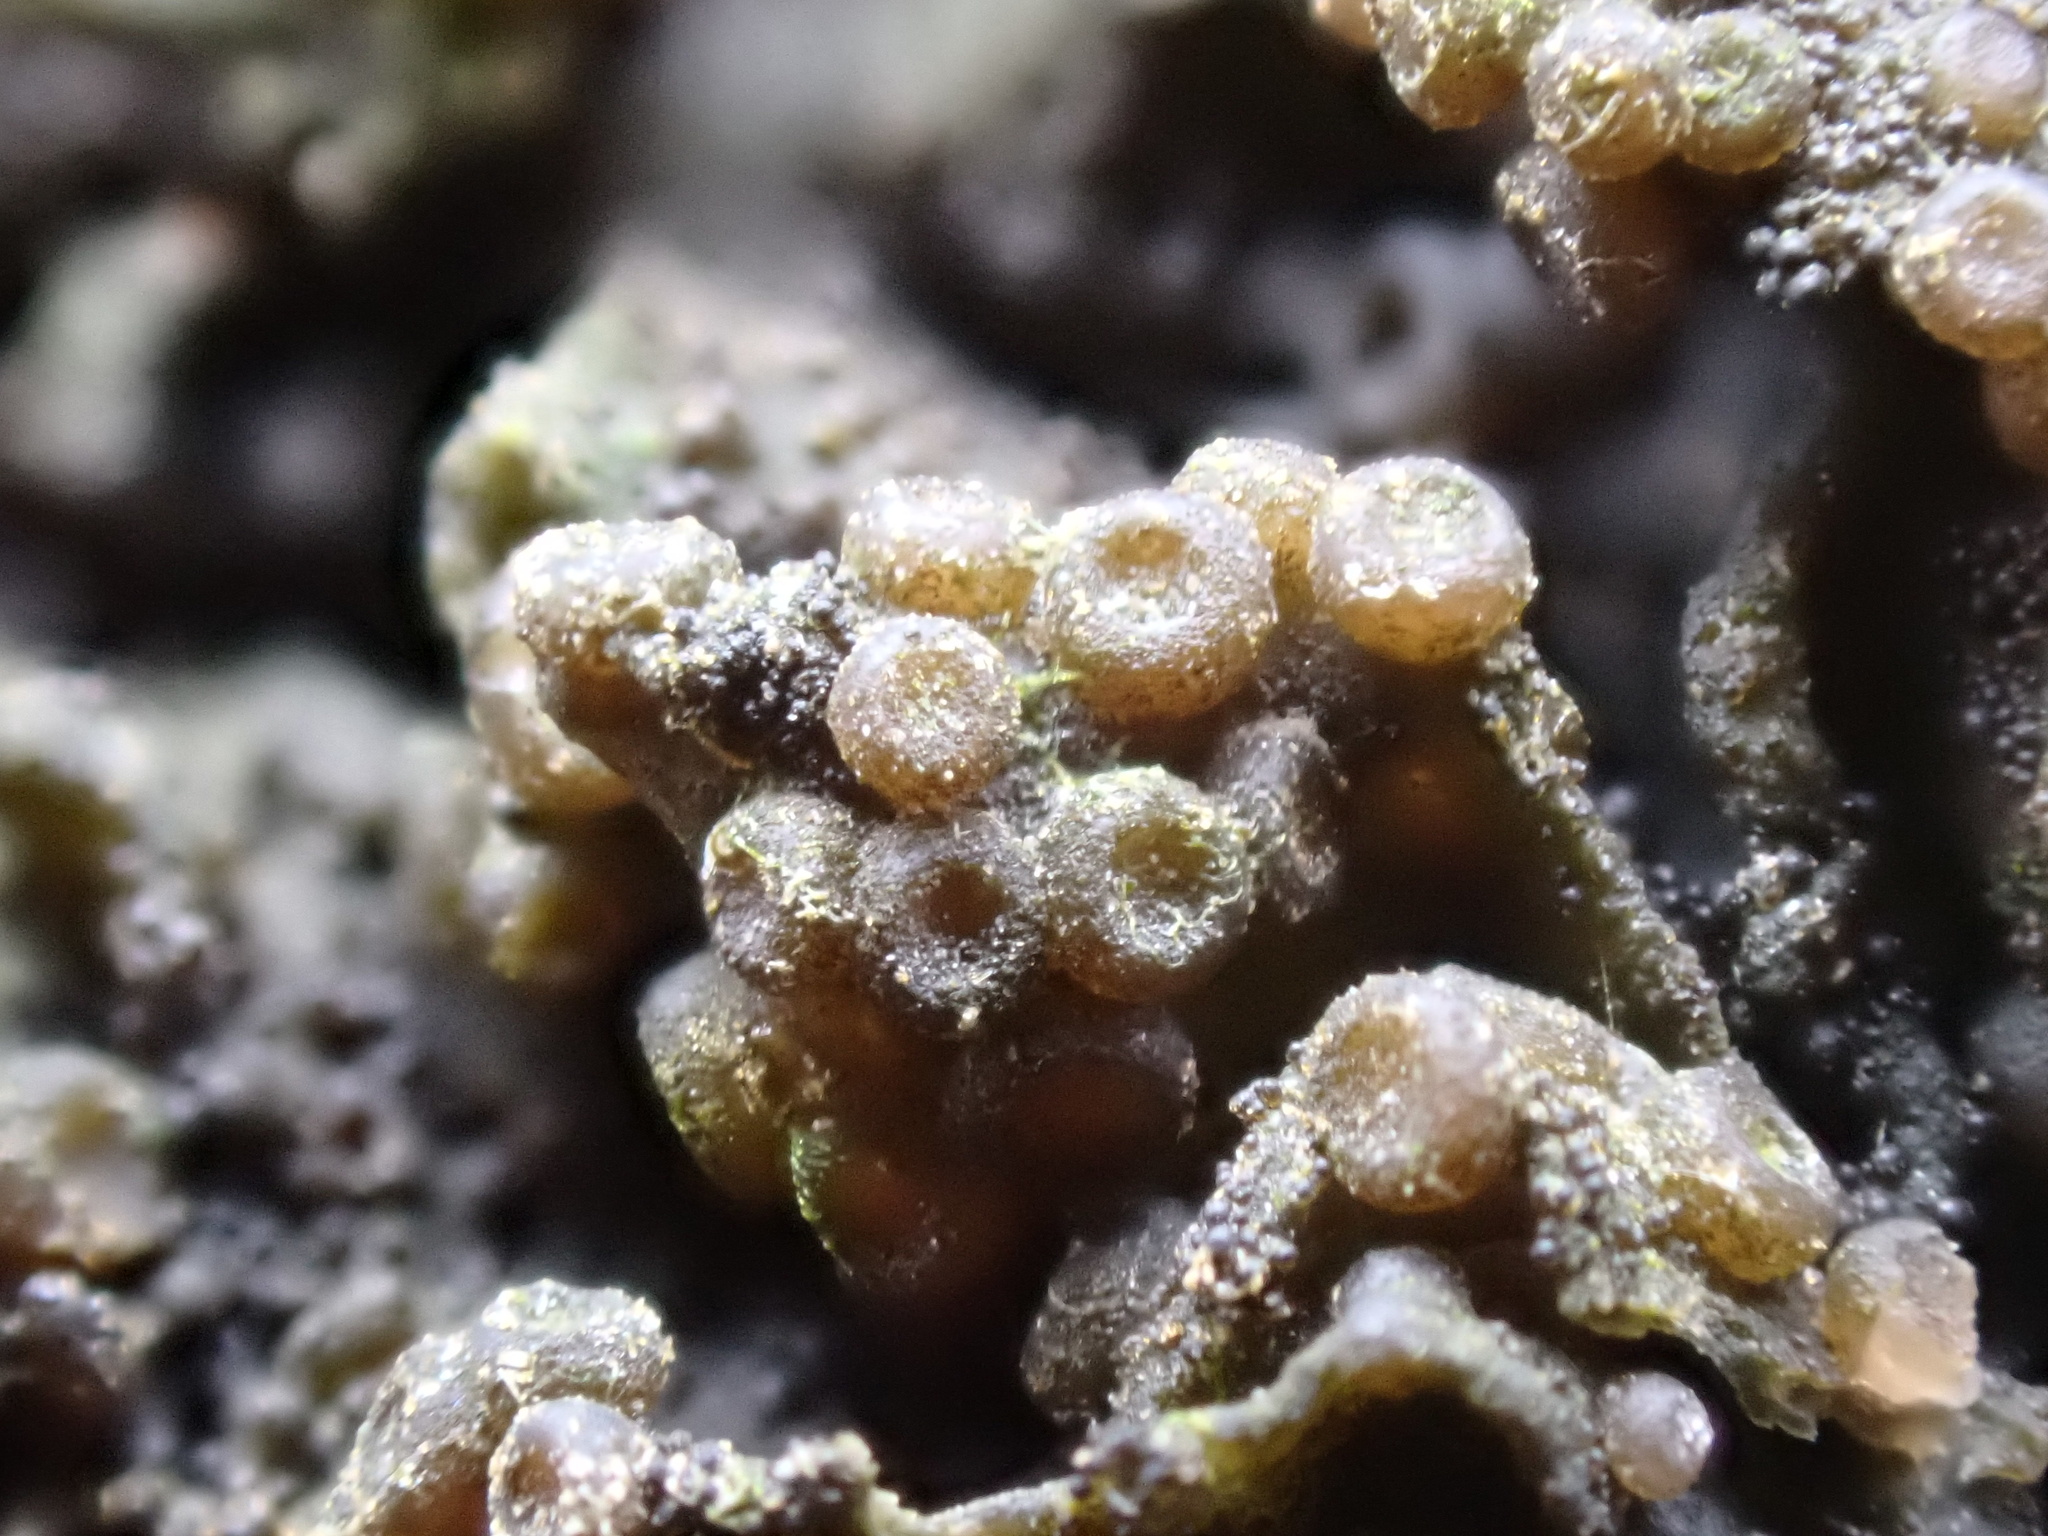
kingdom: Fungi
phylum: Ascomycota
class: Lecanoromycetes
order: Peltigerales
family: Collemataceae
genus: Scytinium
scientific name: Scytinium plicatile
